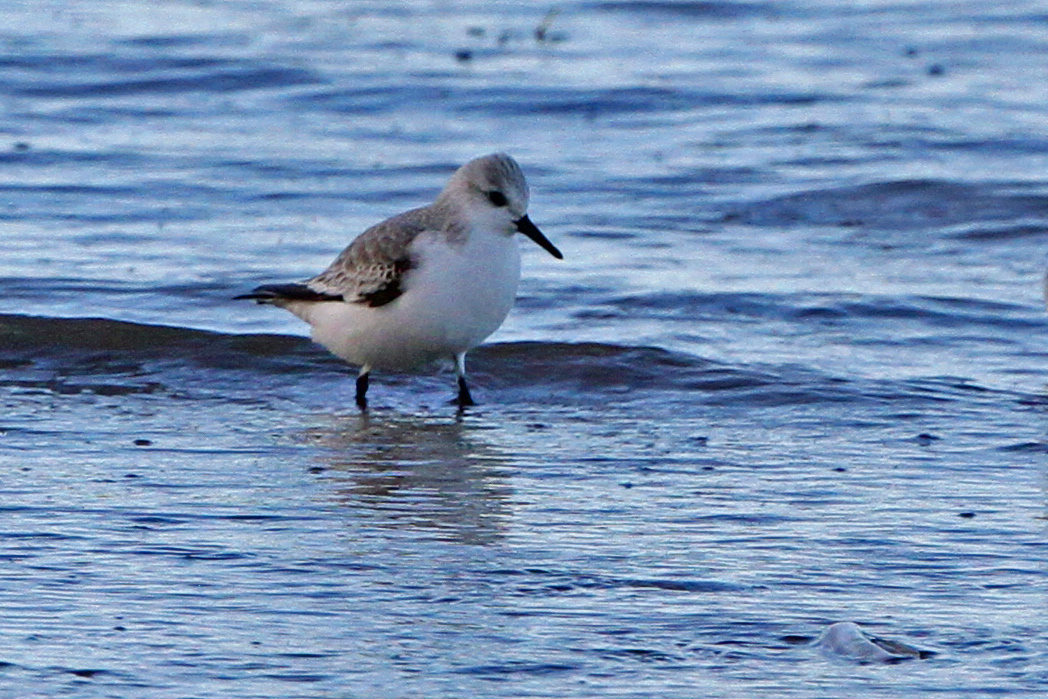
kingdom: Animalia
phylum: Chordata
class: Aves
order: Charadriiformes
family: Scolopacidae
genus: Calidris
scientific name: Calidris alba
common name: Sanderling
